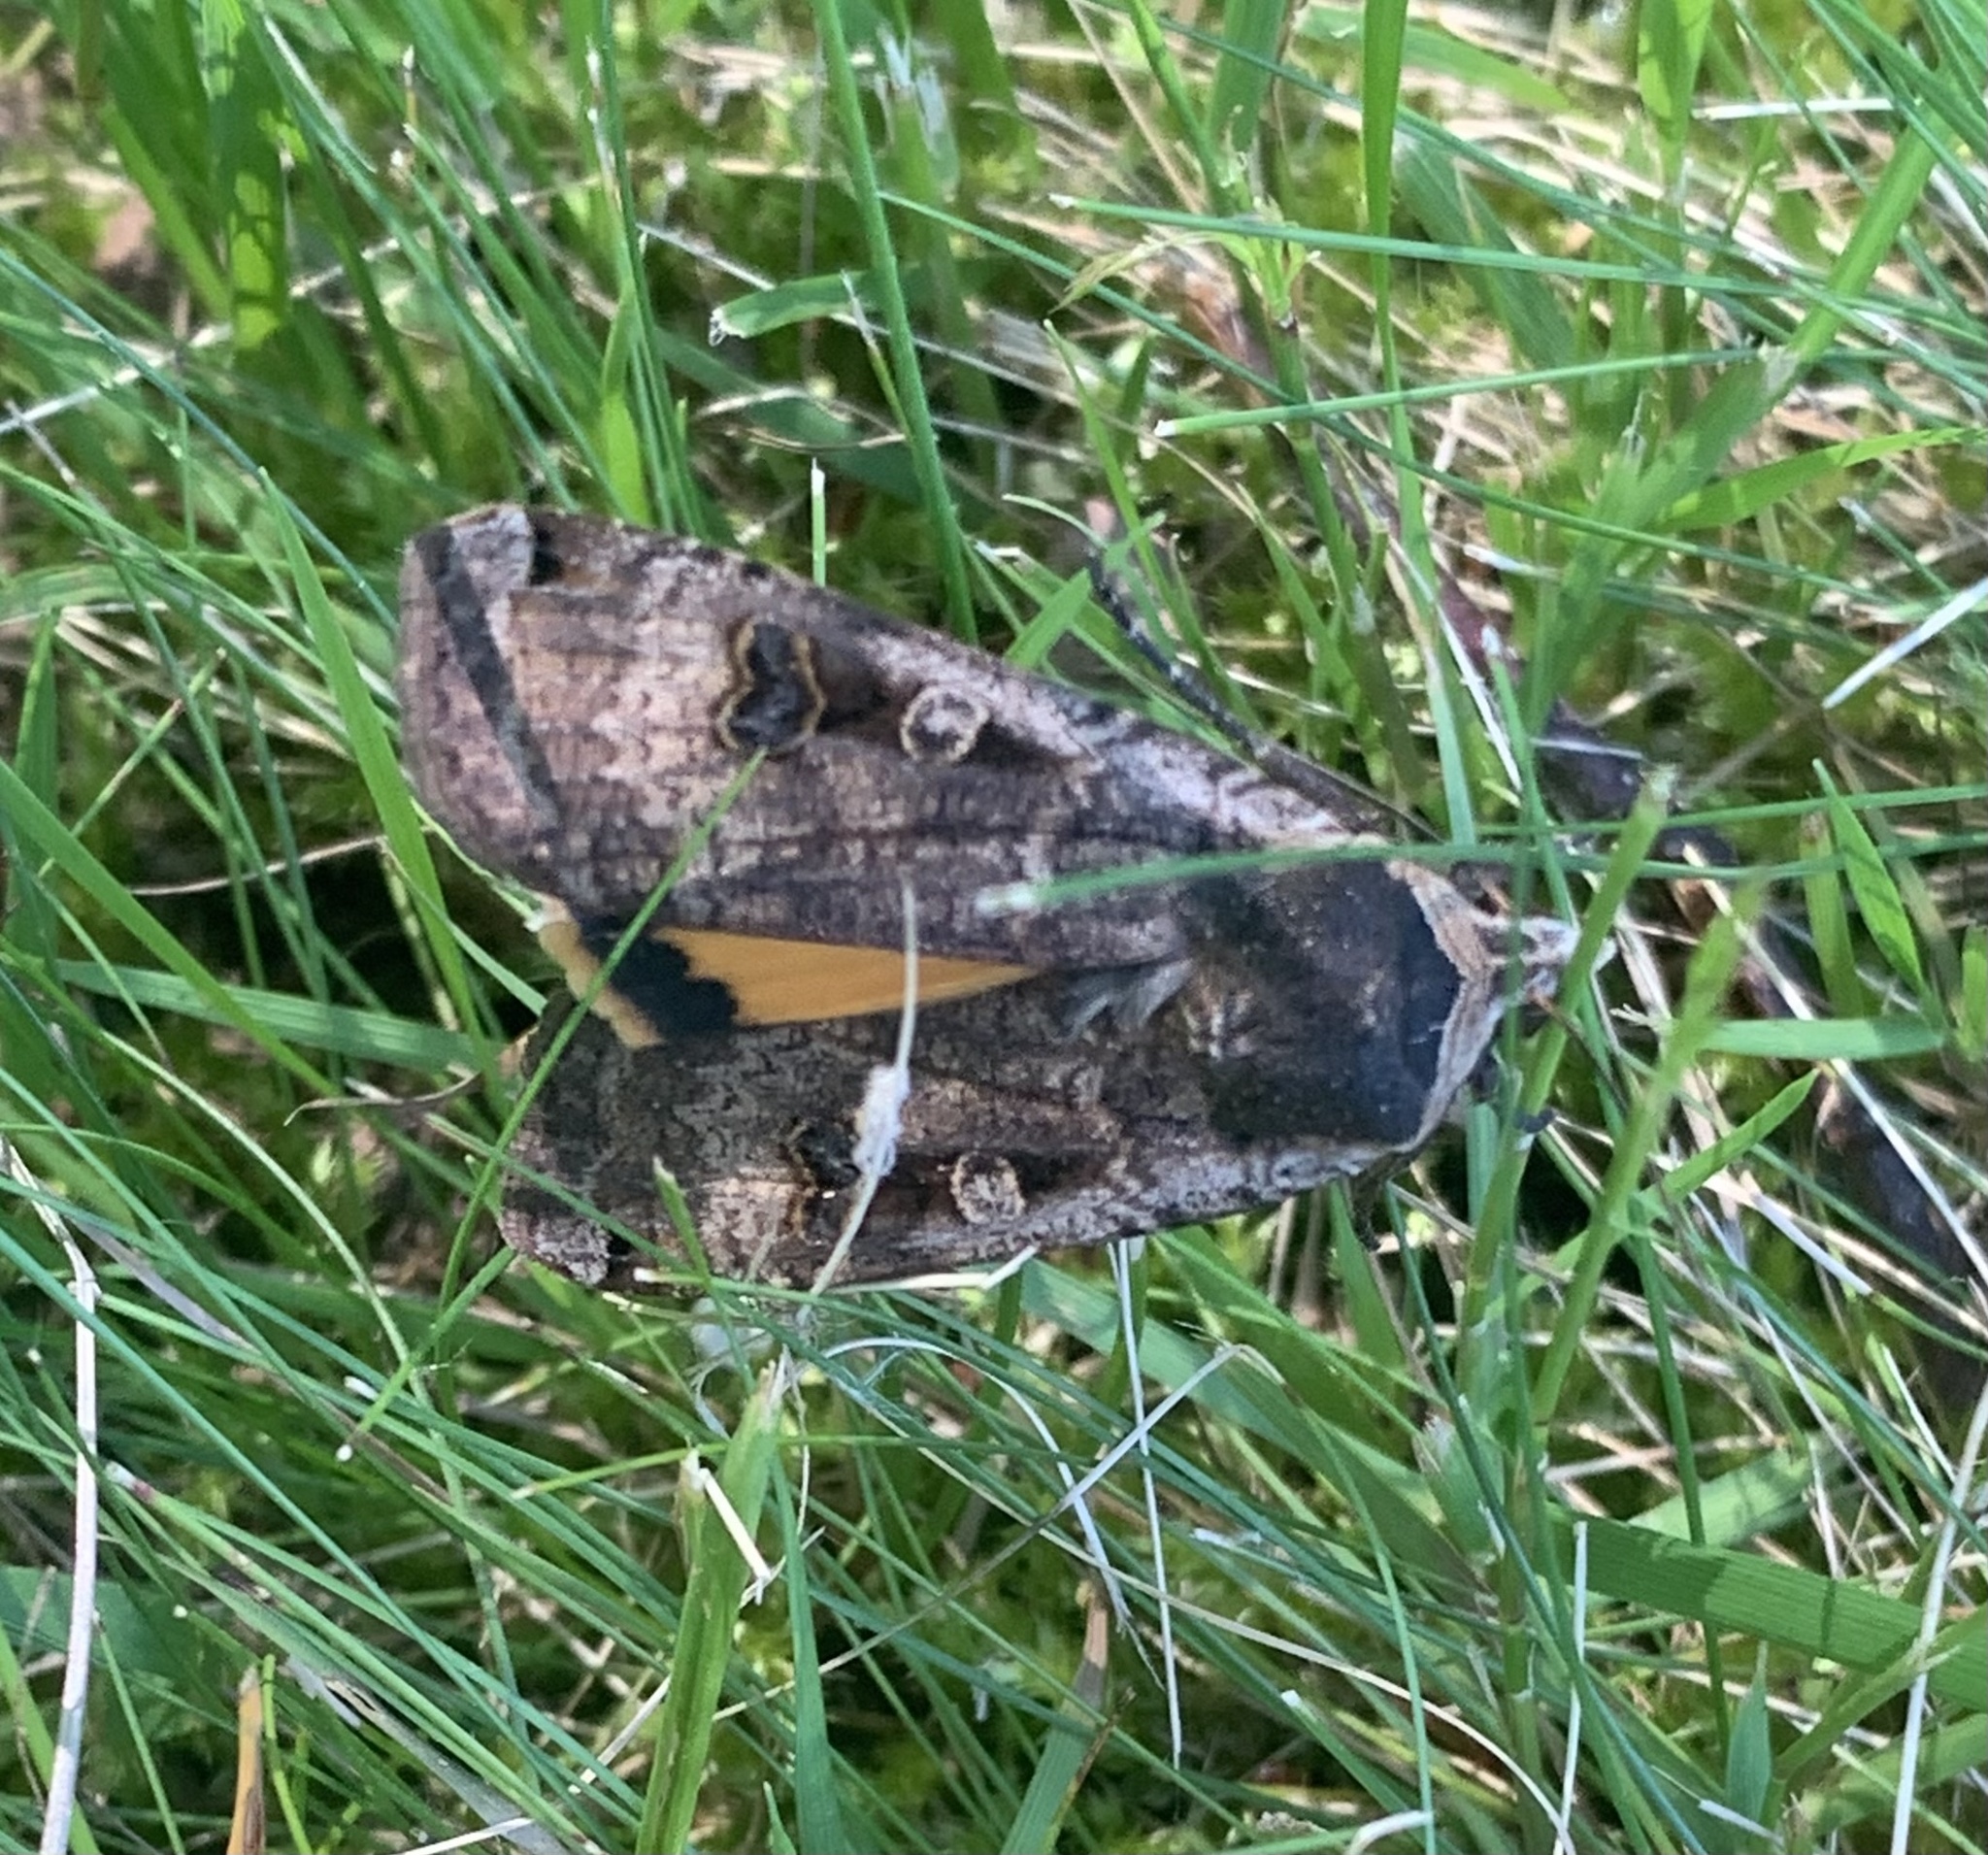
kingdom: Animalia
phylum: Arthropoda
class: Insecta
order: Lepidoptera
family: Noctuidae
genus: Noctua
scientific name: Noctua pronuba
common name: Large yellow underwing
